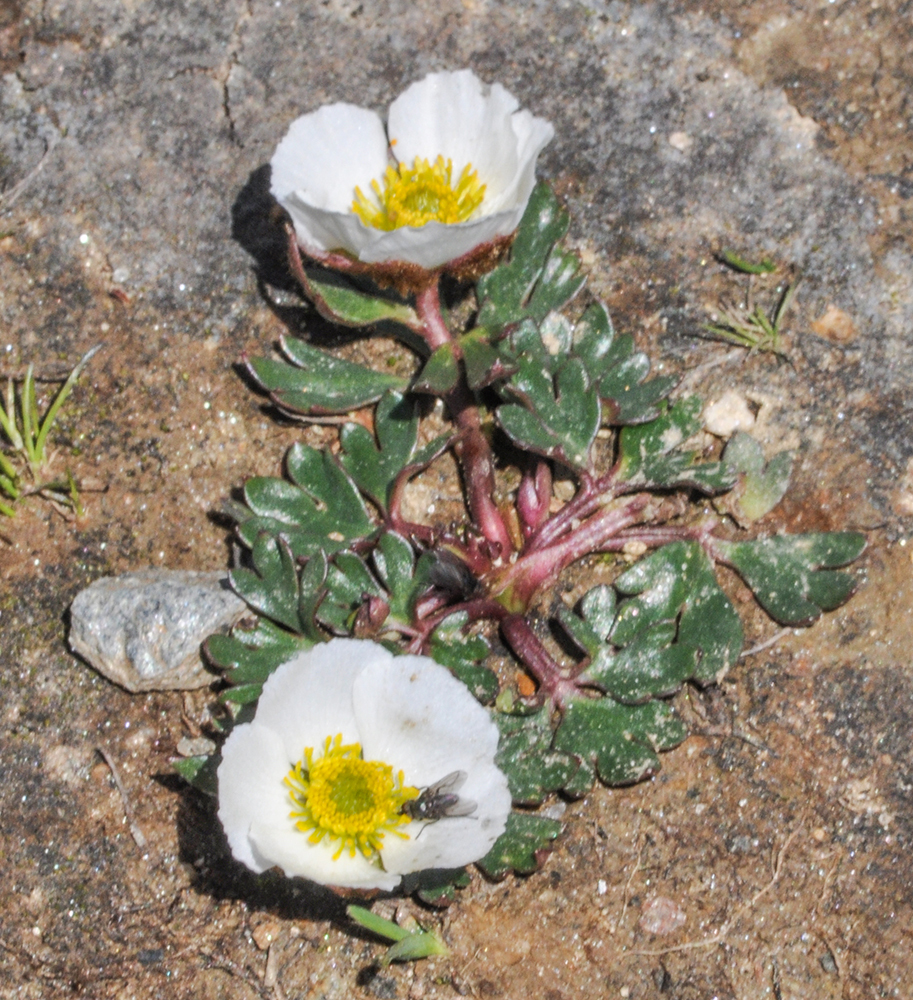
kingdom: Plantae
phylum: Tracheophyta
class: Magnoliopsida
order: Ranunculales
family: Ranunculaceae
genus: Ranunculus
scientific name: Ranunculus glacialis
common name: Glacier buttercup
